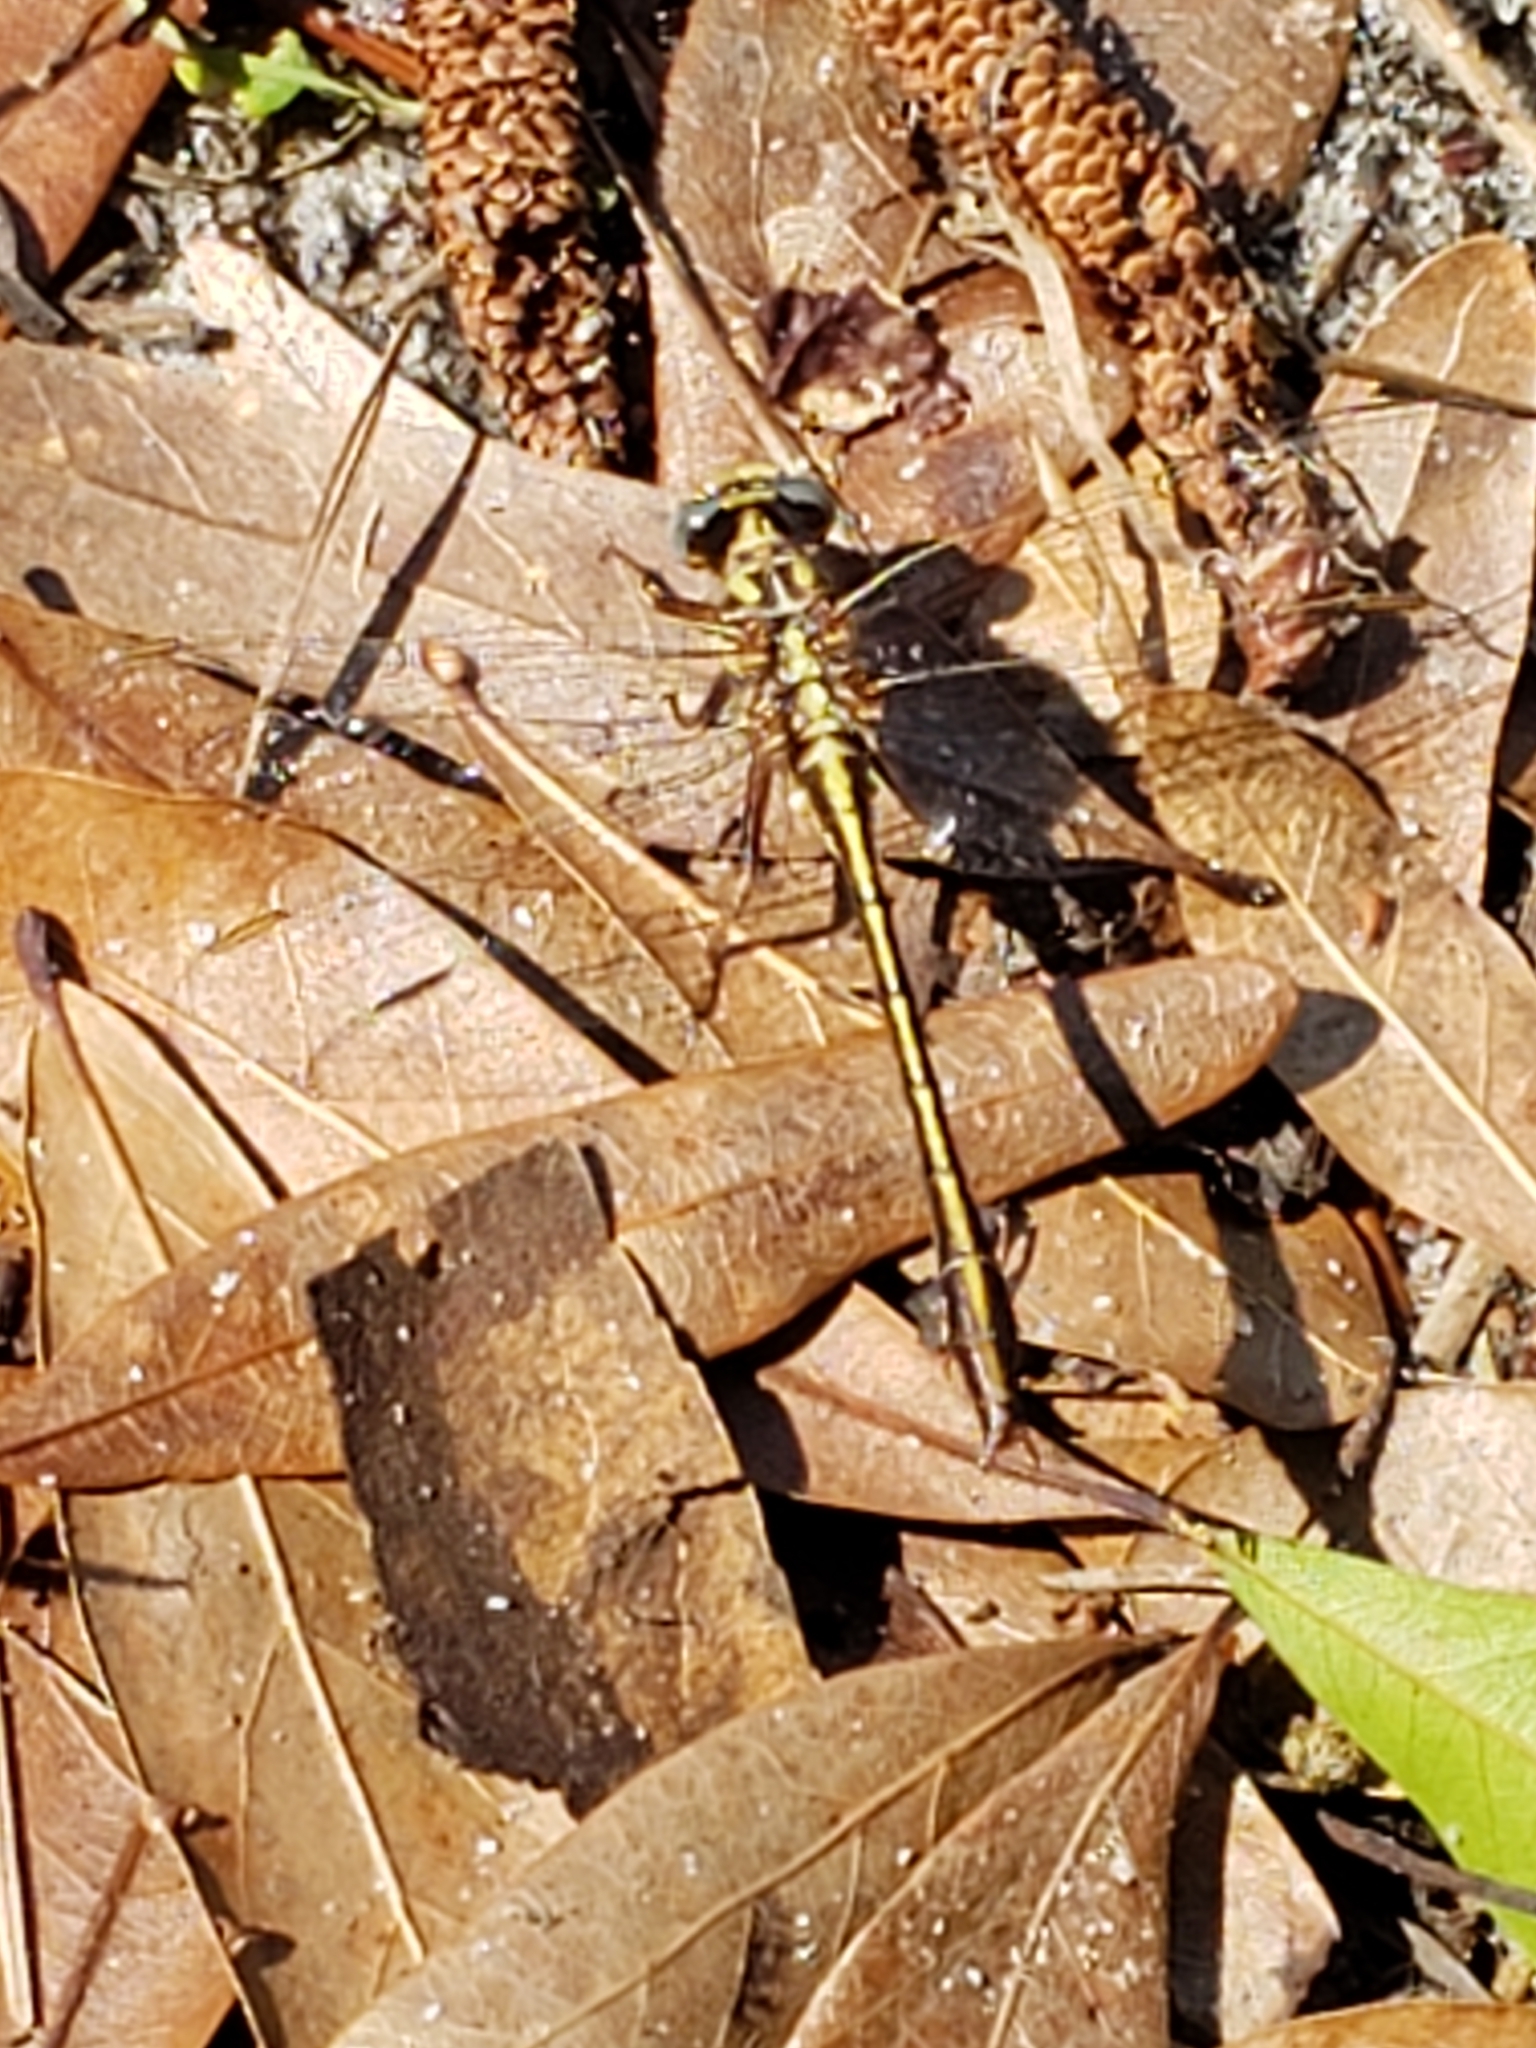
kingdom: Animalia
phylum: Arthropoda
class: Insecta
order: Odonata
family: Gomphidae
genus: Phanogomphus
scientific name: Phanogomphus minutus
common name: Cypress clubtail
